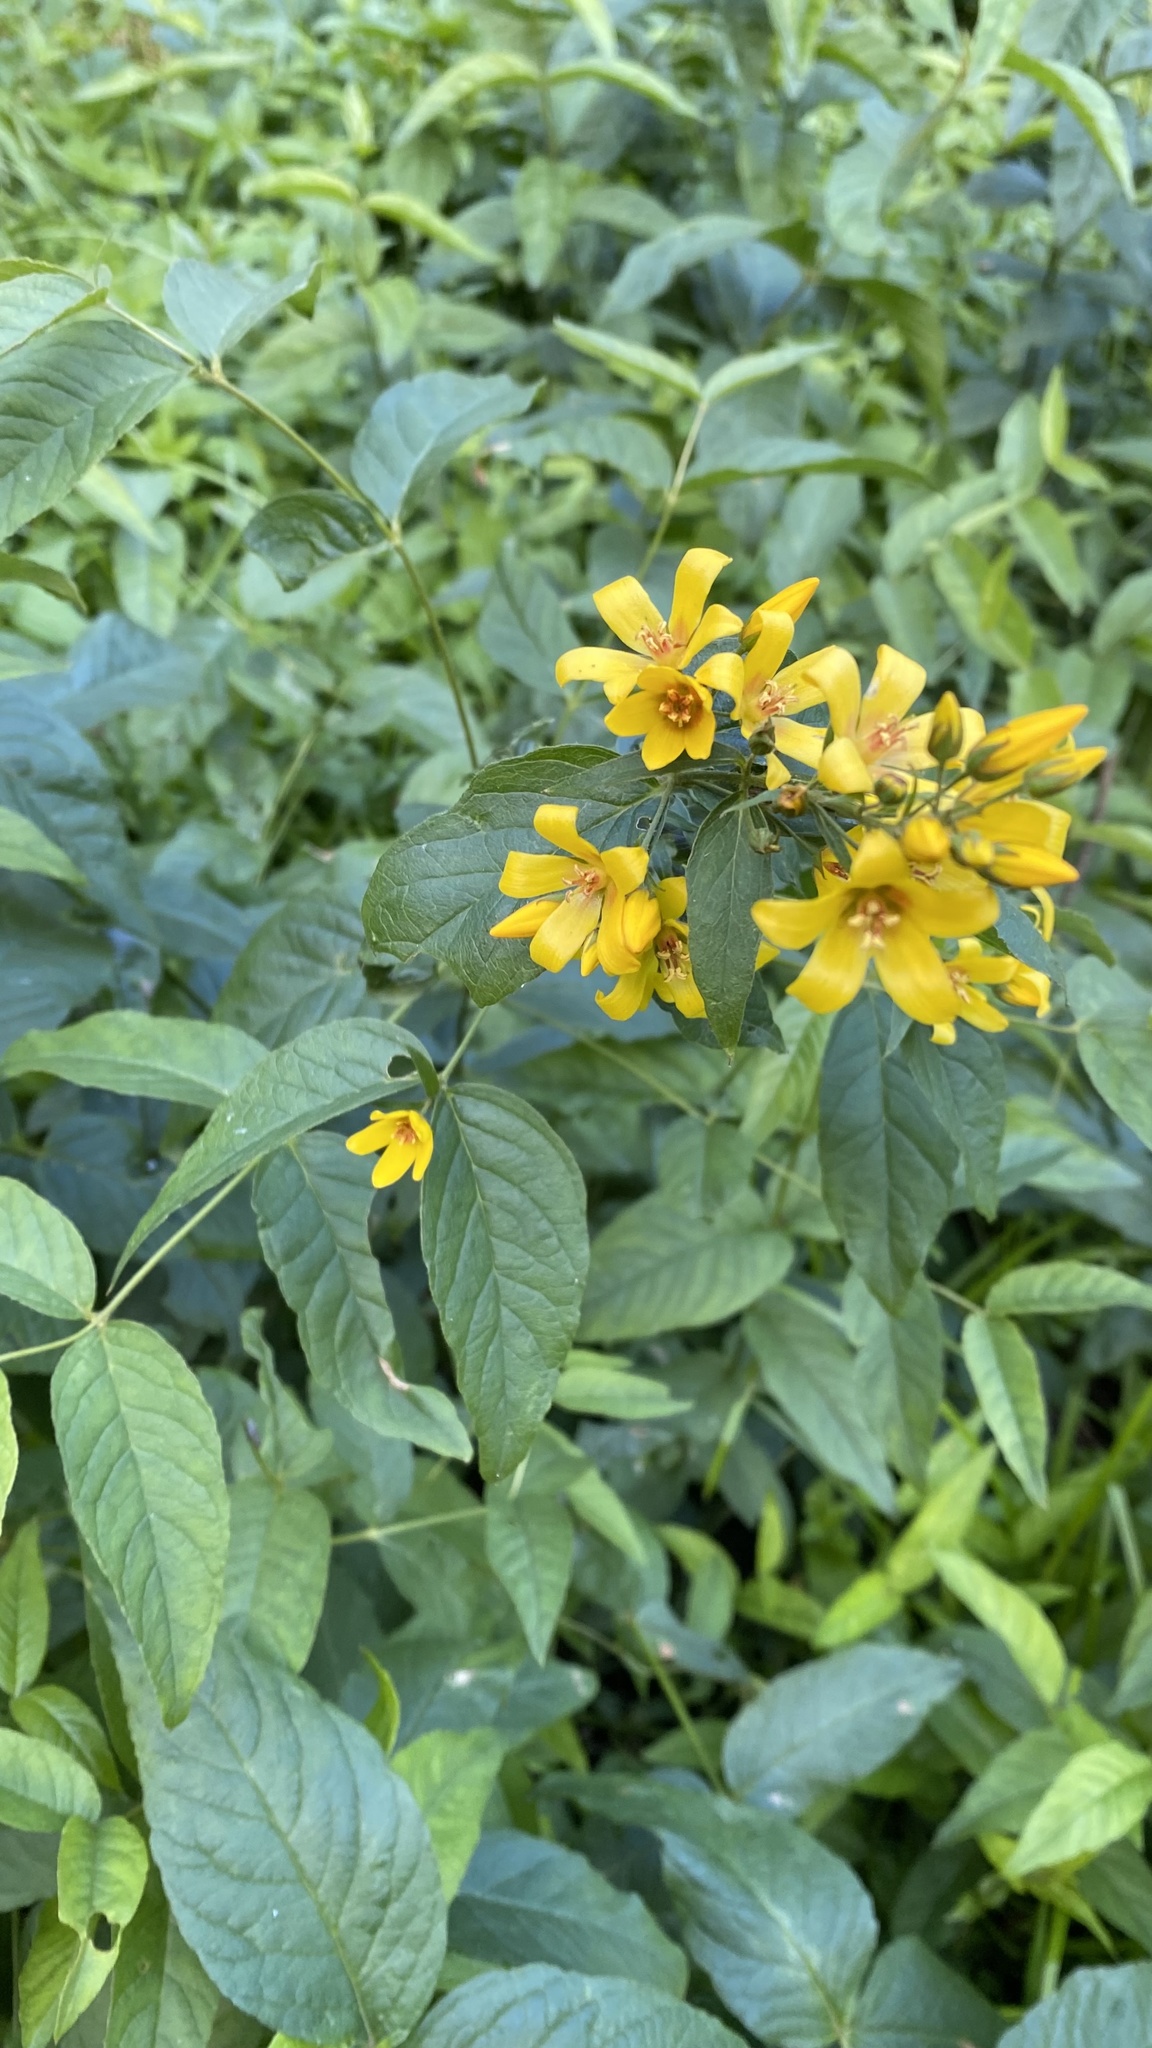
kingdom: Plantae
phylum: Tracheophyta
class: Magnoliopsida
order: Ericales
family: Primulaceae
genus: Lysimachia
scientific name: Lysimachia vulgaris
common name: Yellow loosestrife
